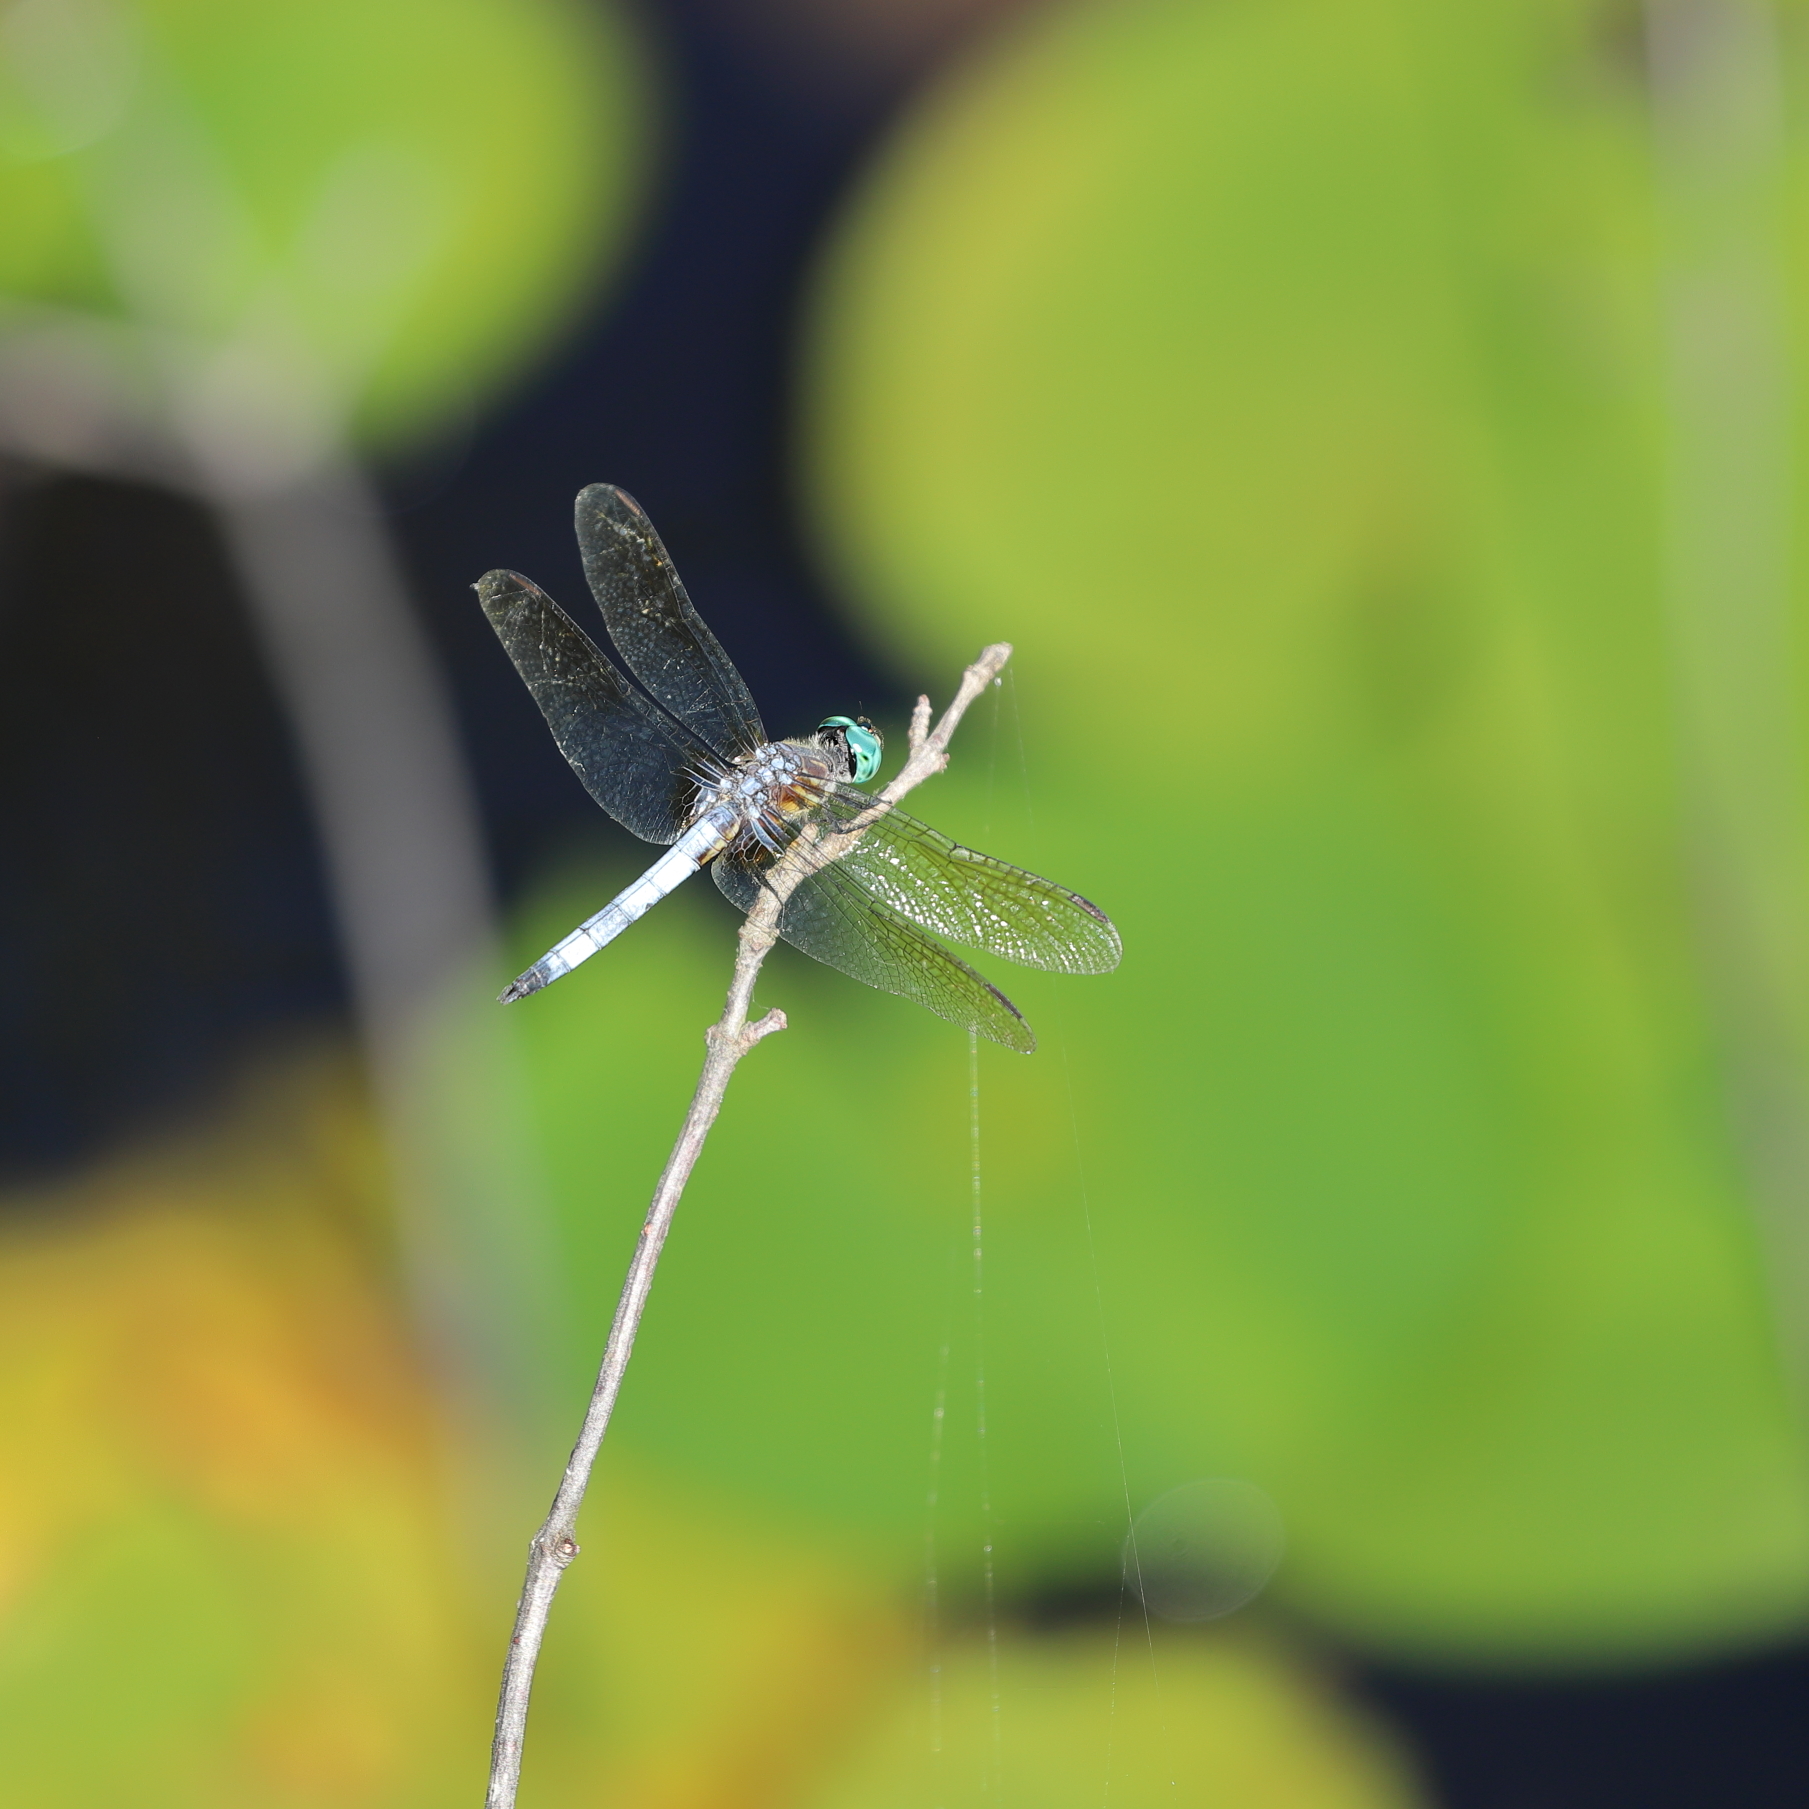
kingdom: Animalia
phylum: Arthropoda
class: Insecta
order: Odonata
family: Libellulidae
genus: Pachydiplax
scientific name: Pachydiplax longipennis
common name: Blue dasher
